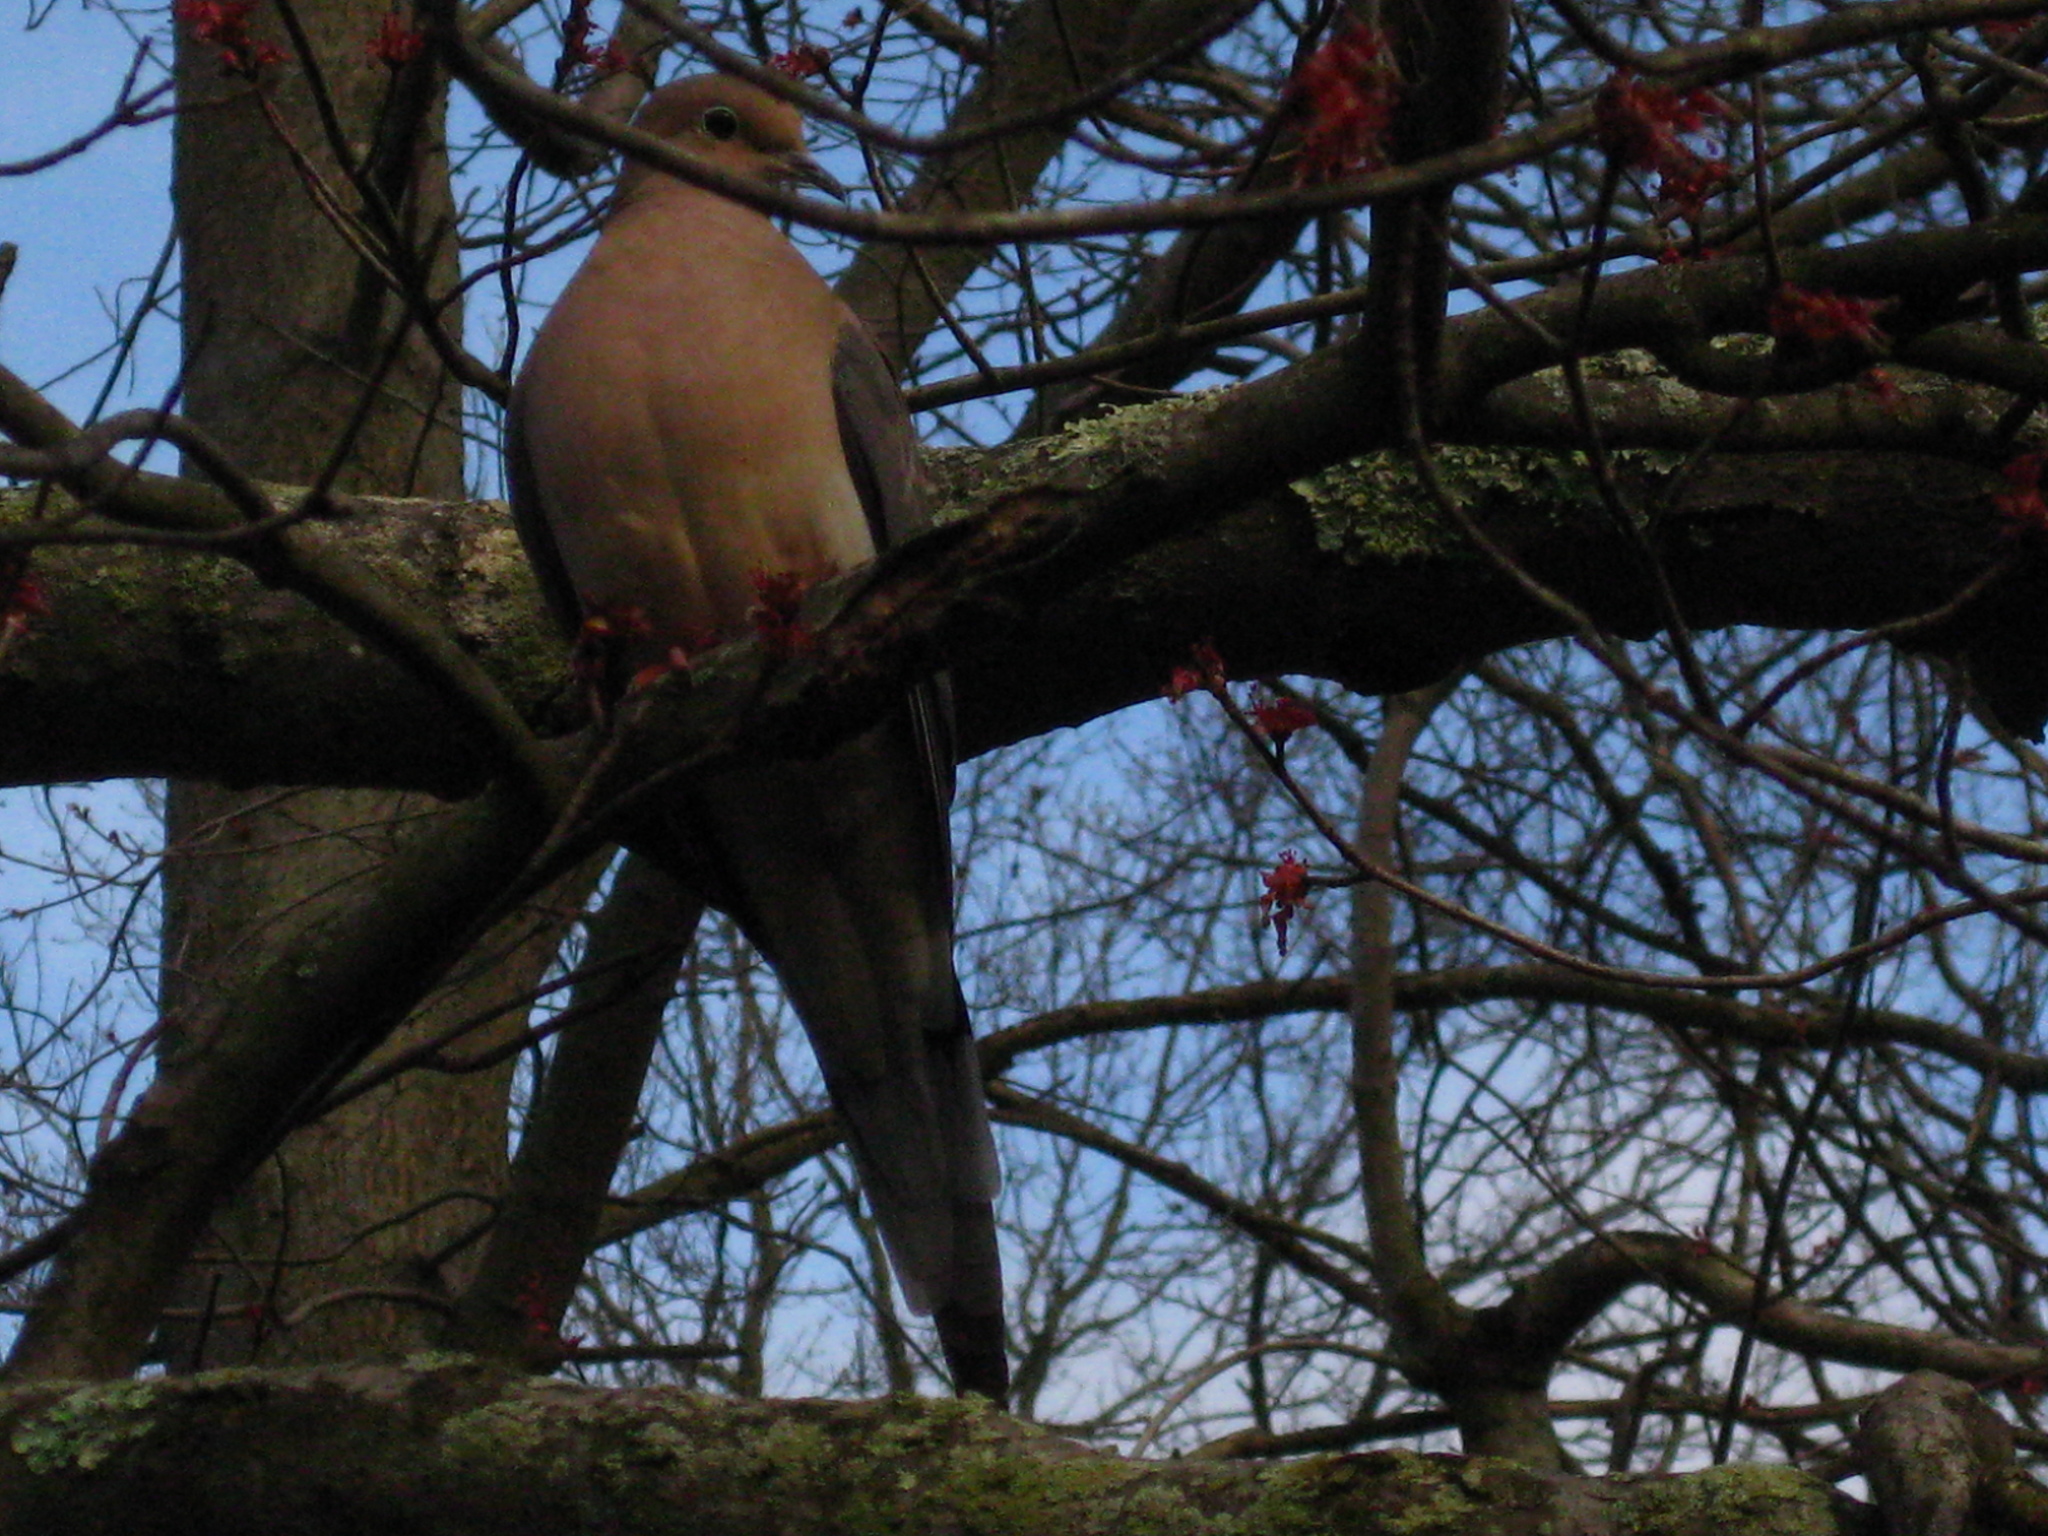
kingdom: Animalia
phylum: Chordata
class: Aves
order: Columbiformes
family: Columbidae
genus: Zenaida
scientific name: Zenaida macroura
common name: Mourning dove
